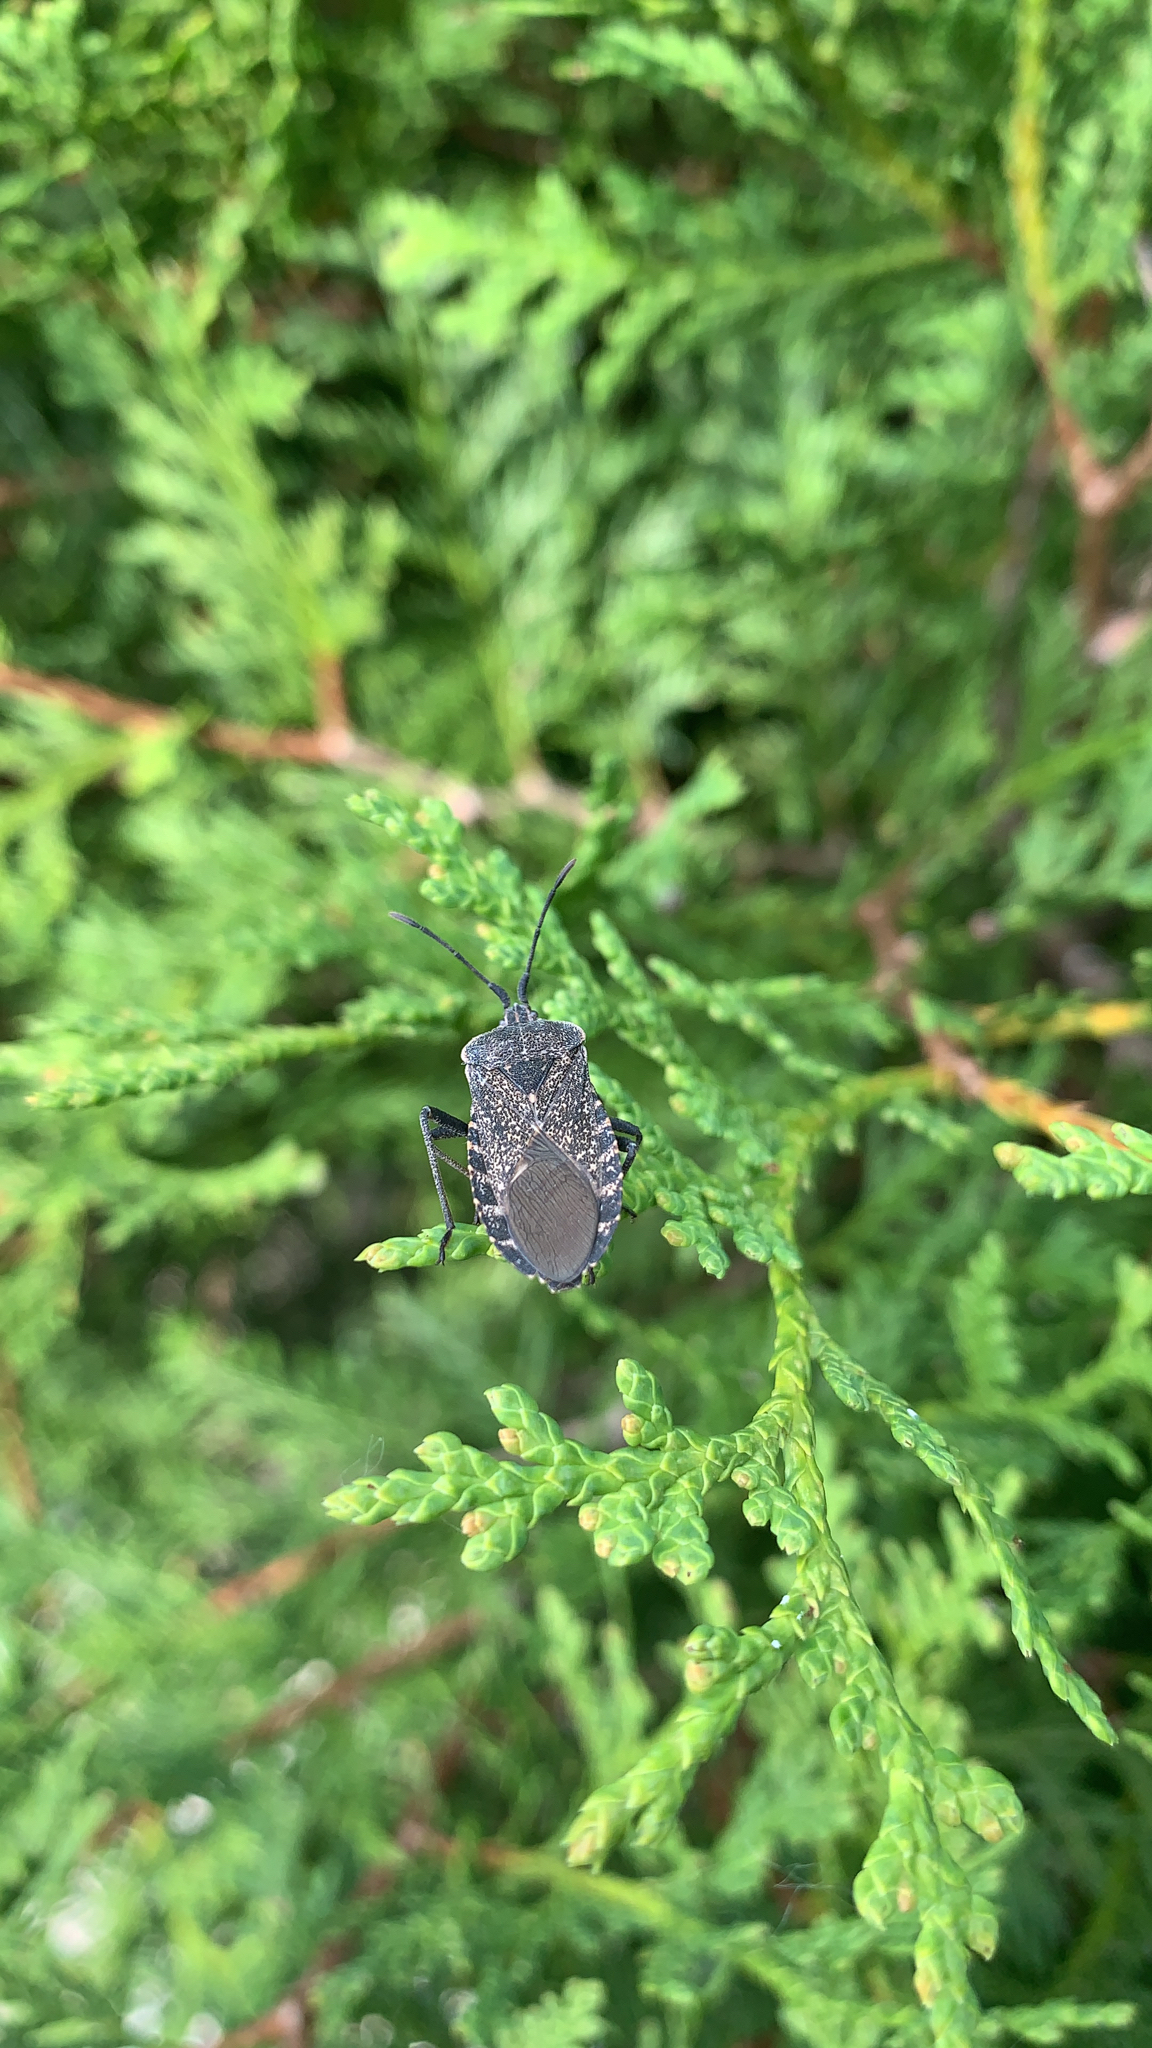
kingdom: Animalia
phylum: Arthropoda
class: Insecta
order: Hemiptera
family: Coreidae
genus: Anasa
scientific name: Anasa tristis
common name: Squash bug
